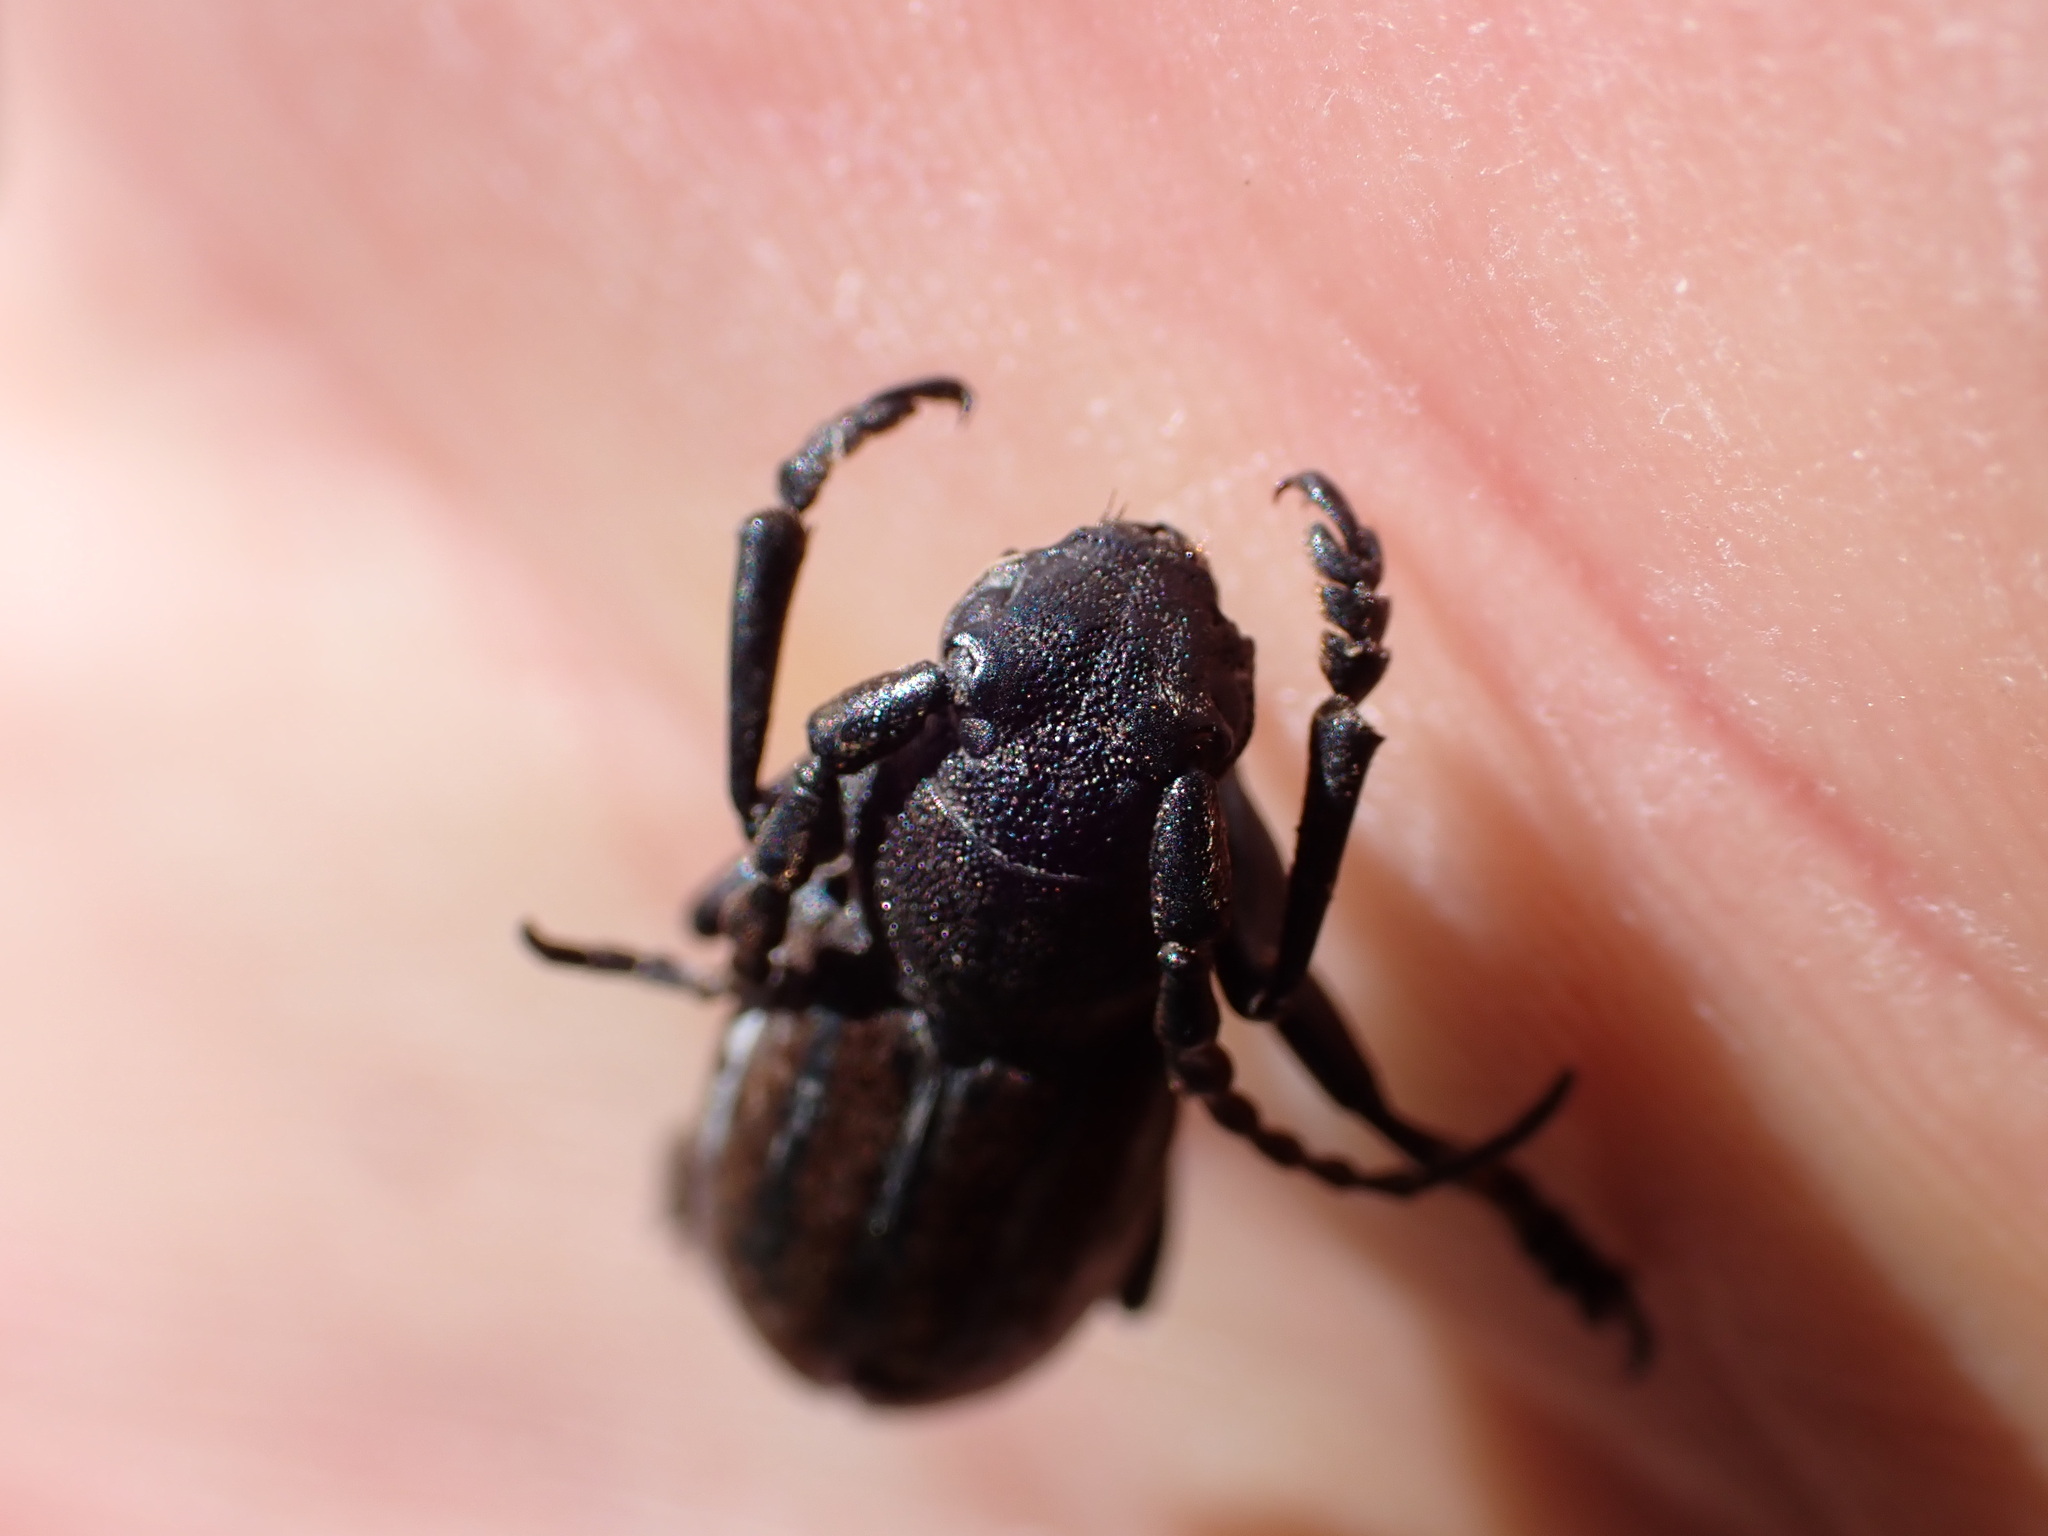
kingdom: Animalia
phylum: Arthropoda
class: Insecta
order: Coleoptera
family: Cerambycidae
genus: Iberodorcadion
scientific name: Iberodorcadion fuliginator
